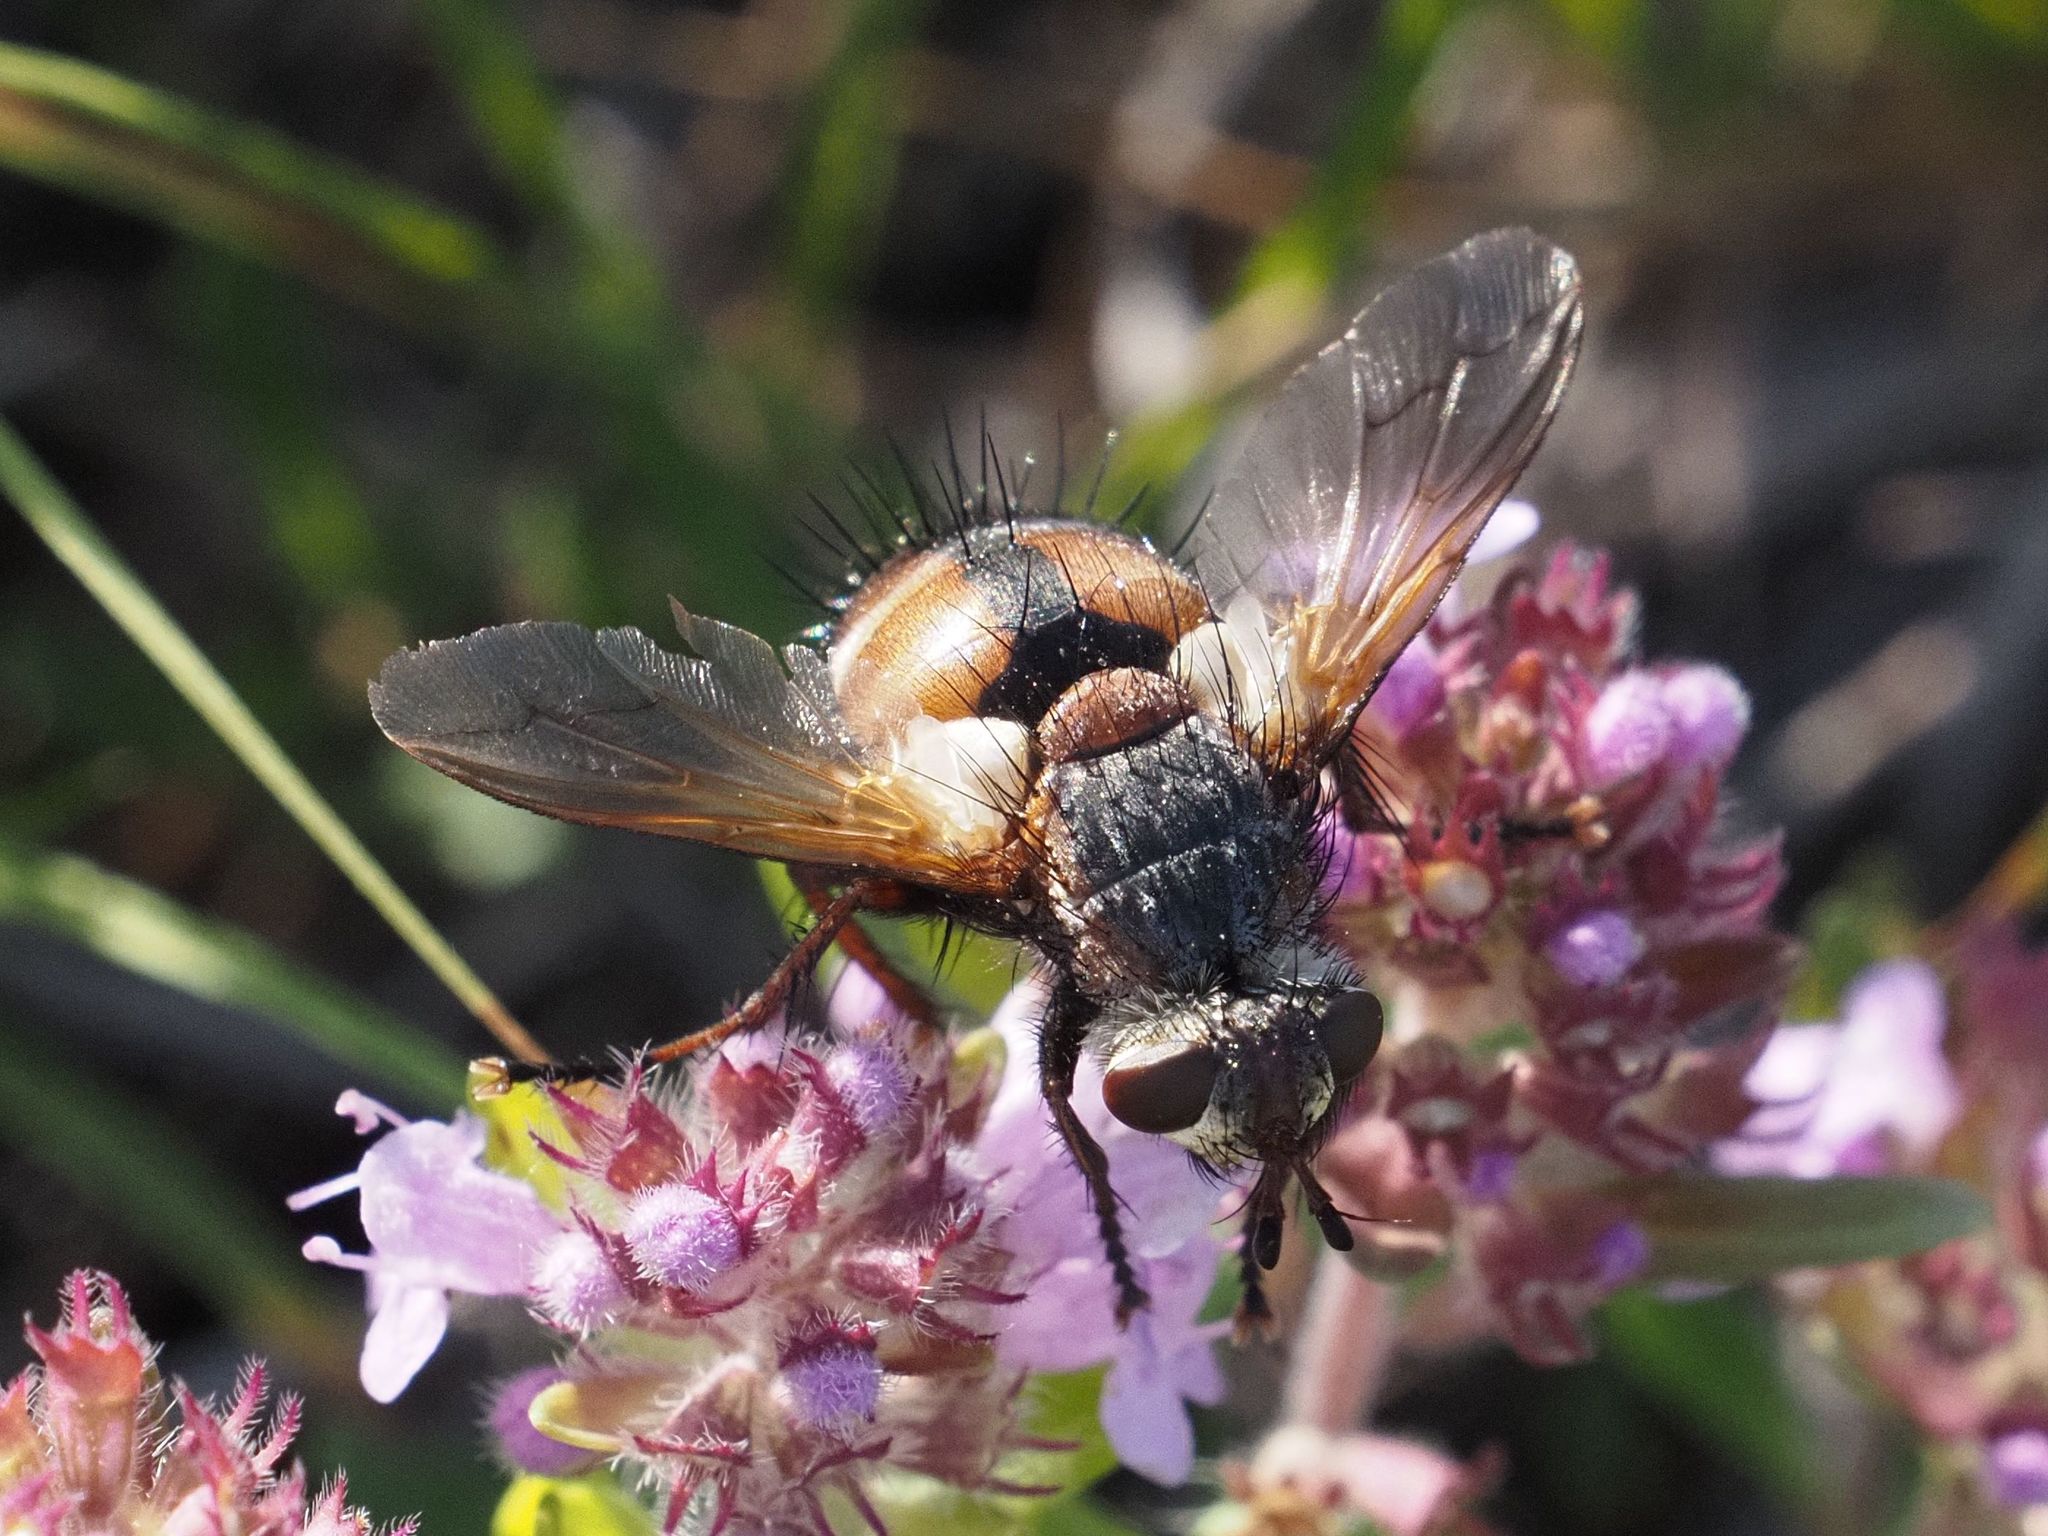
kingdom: Animalia
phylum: Arthropoda
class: Insecta
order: Diptera
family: Tachinidae
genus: Tachina
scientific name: Tachina fera
